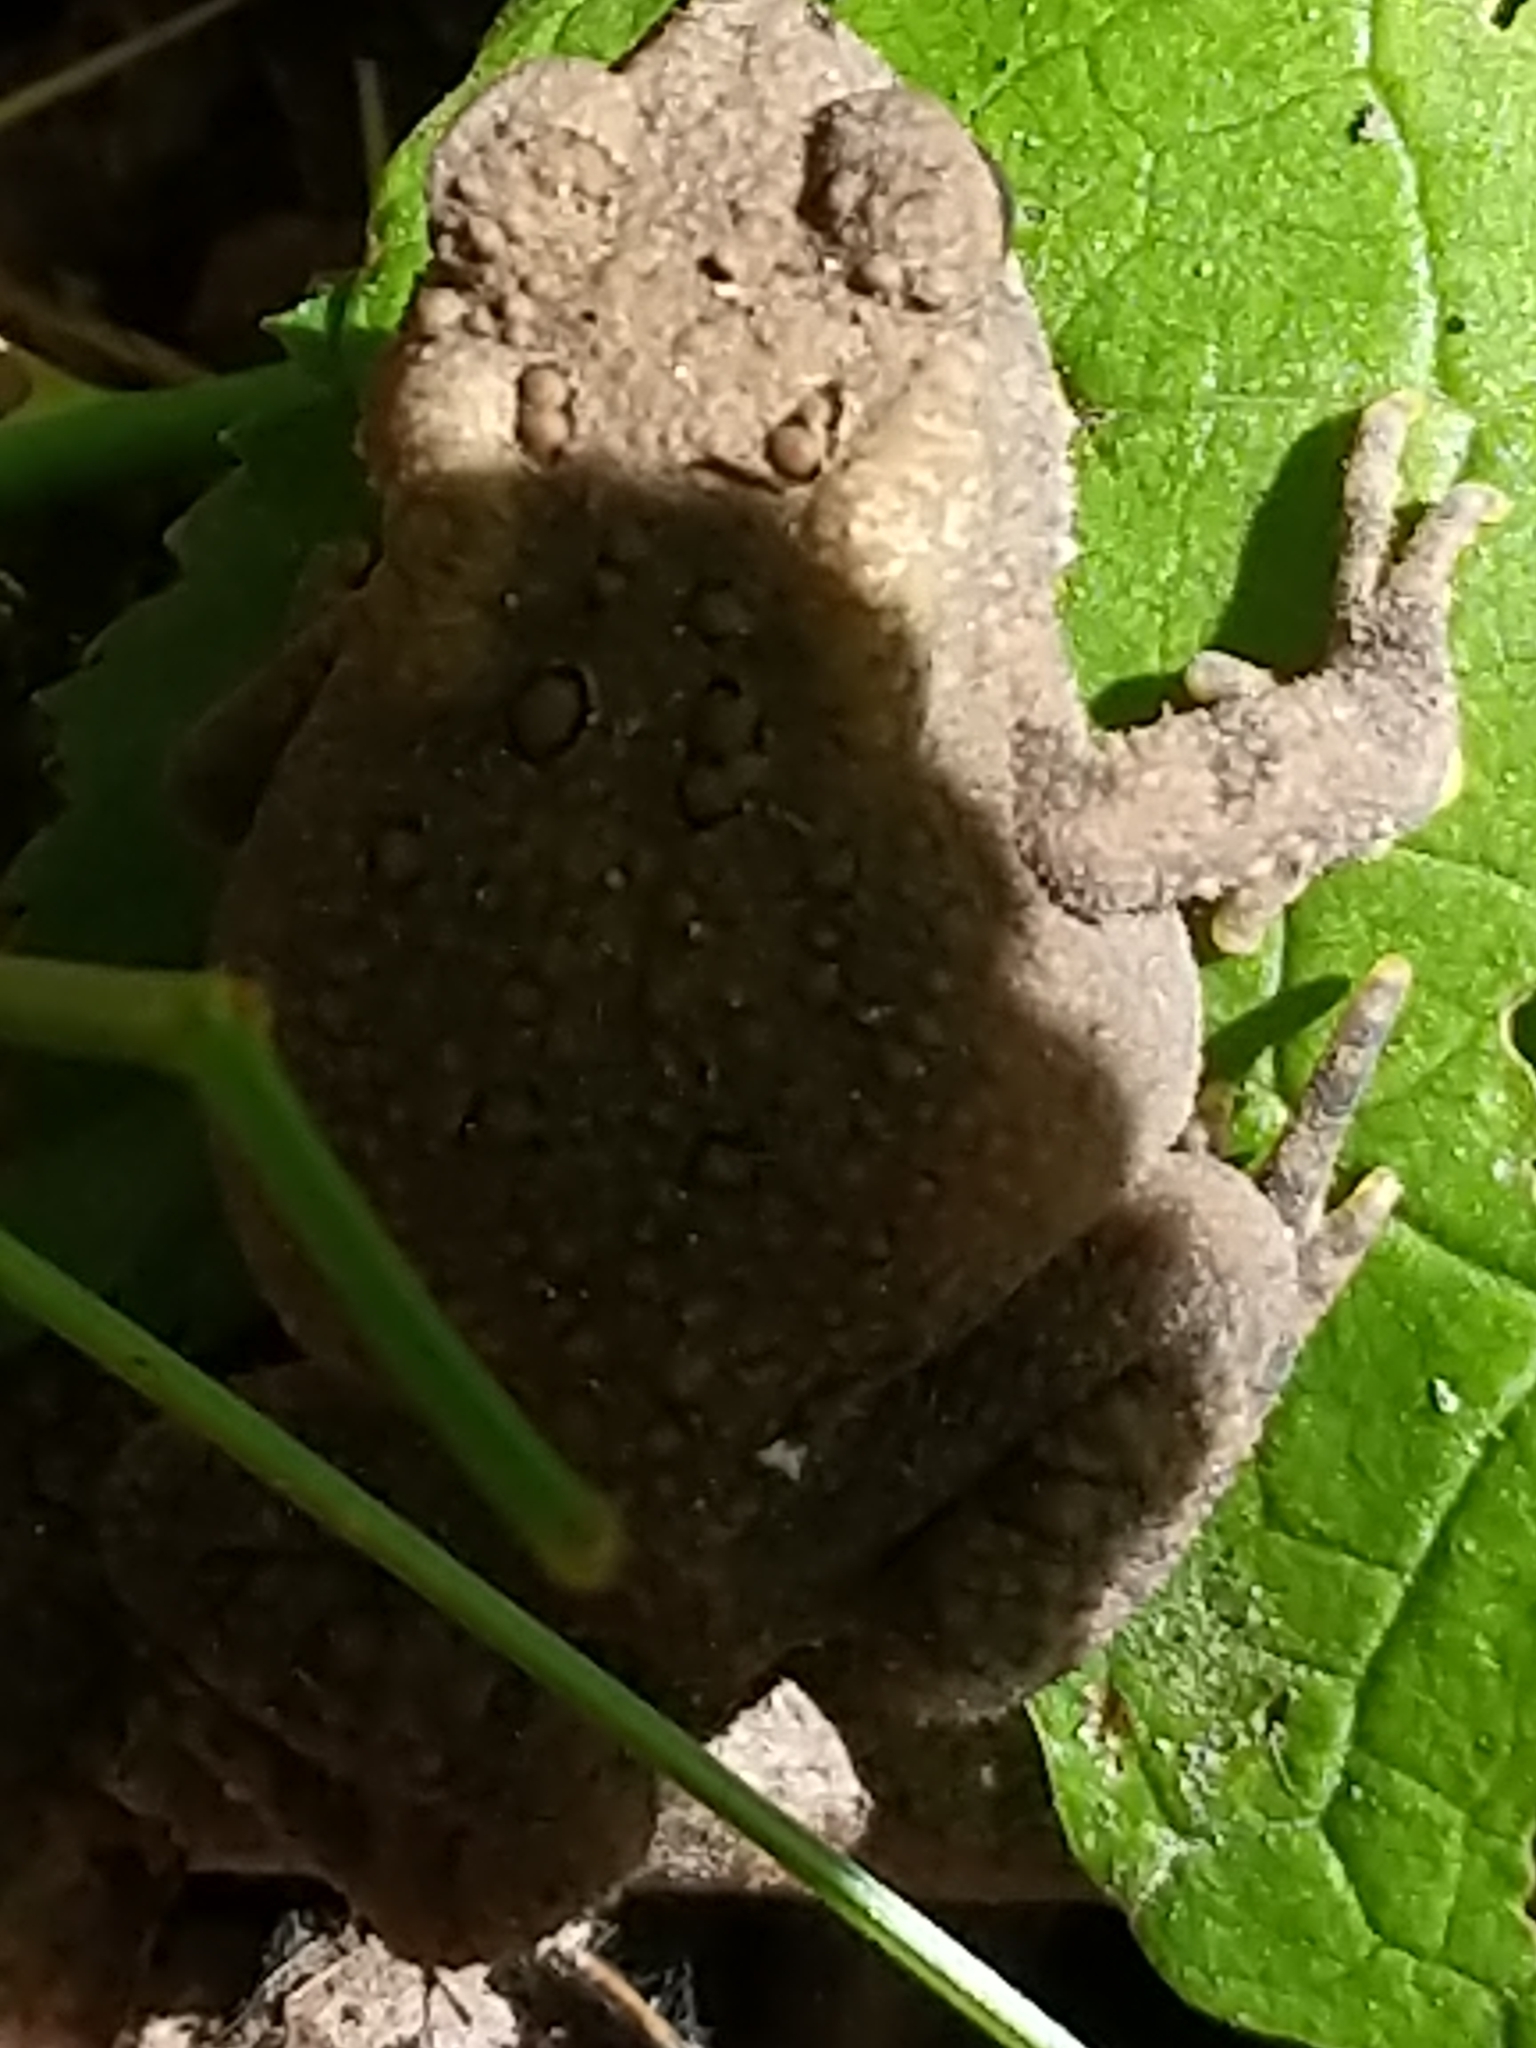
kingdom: Animalia
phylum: Chordata
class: Amphibia
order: Anura
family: Bufonidae
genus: Anaxyrus
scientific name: Anaxyrus americanus
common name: American toad
